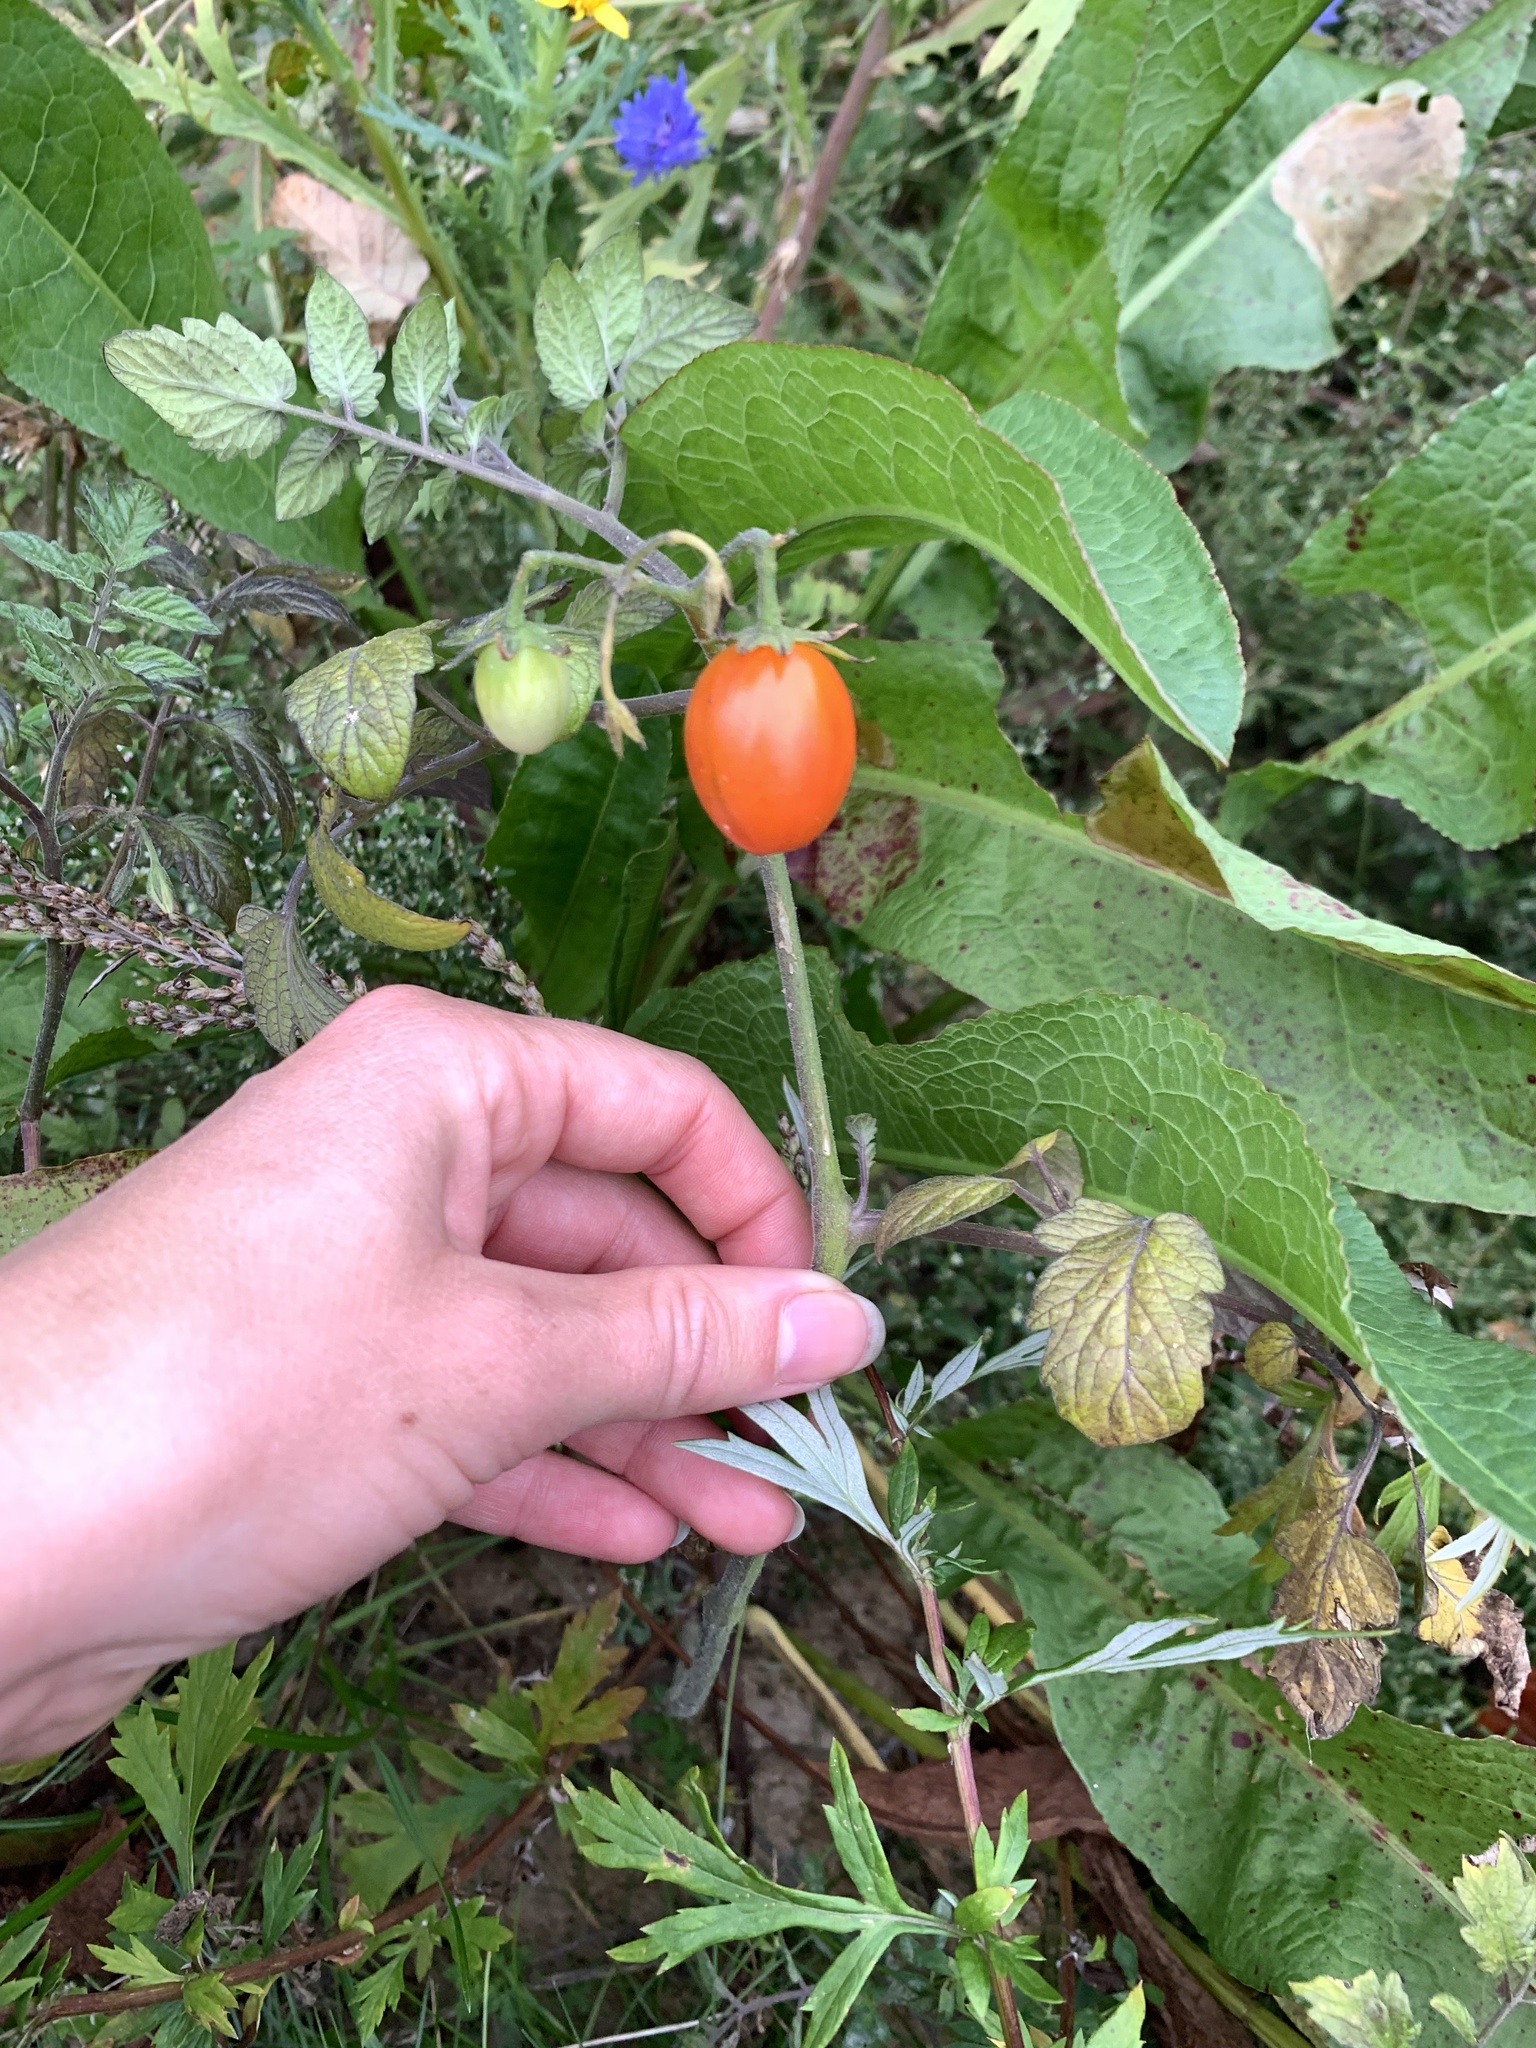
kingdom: Plantae
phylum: Tracheophyta
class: Magnoliopsida
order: Solanales
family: Solanaceae
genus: Solanum
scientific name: Solanum lycopersicum
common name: Garden tomato
